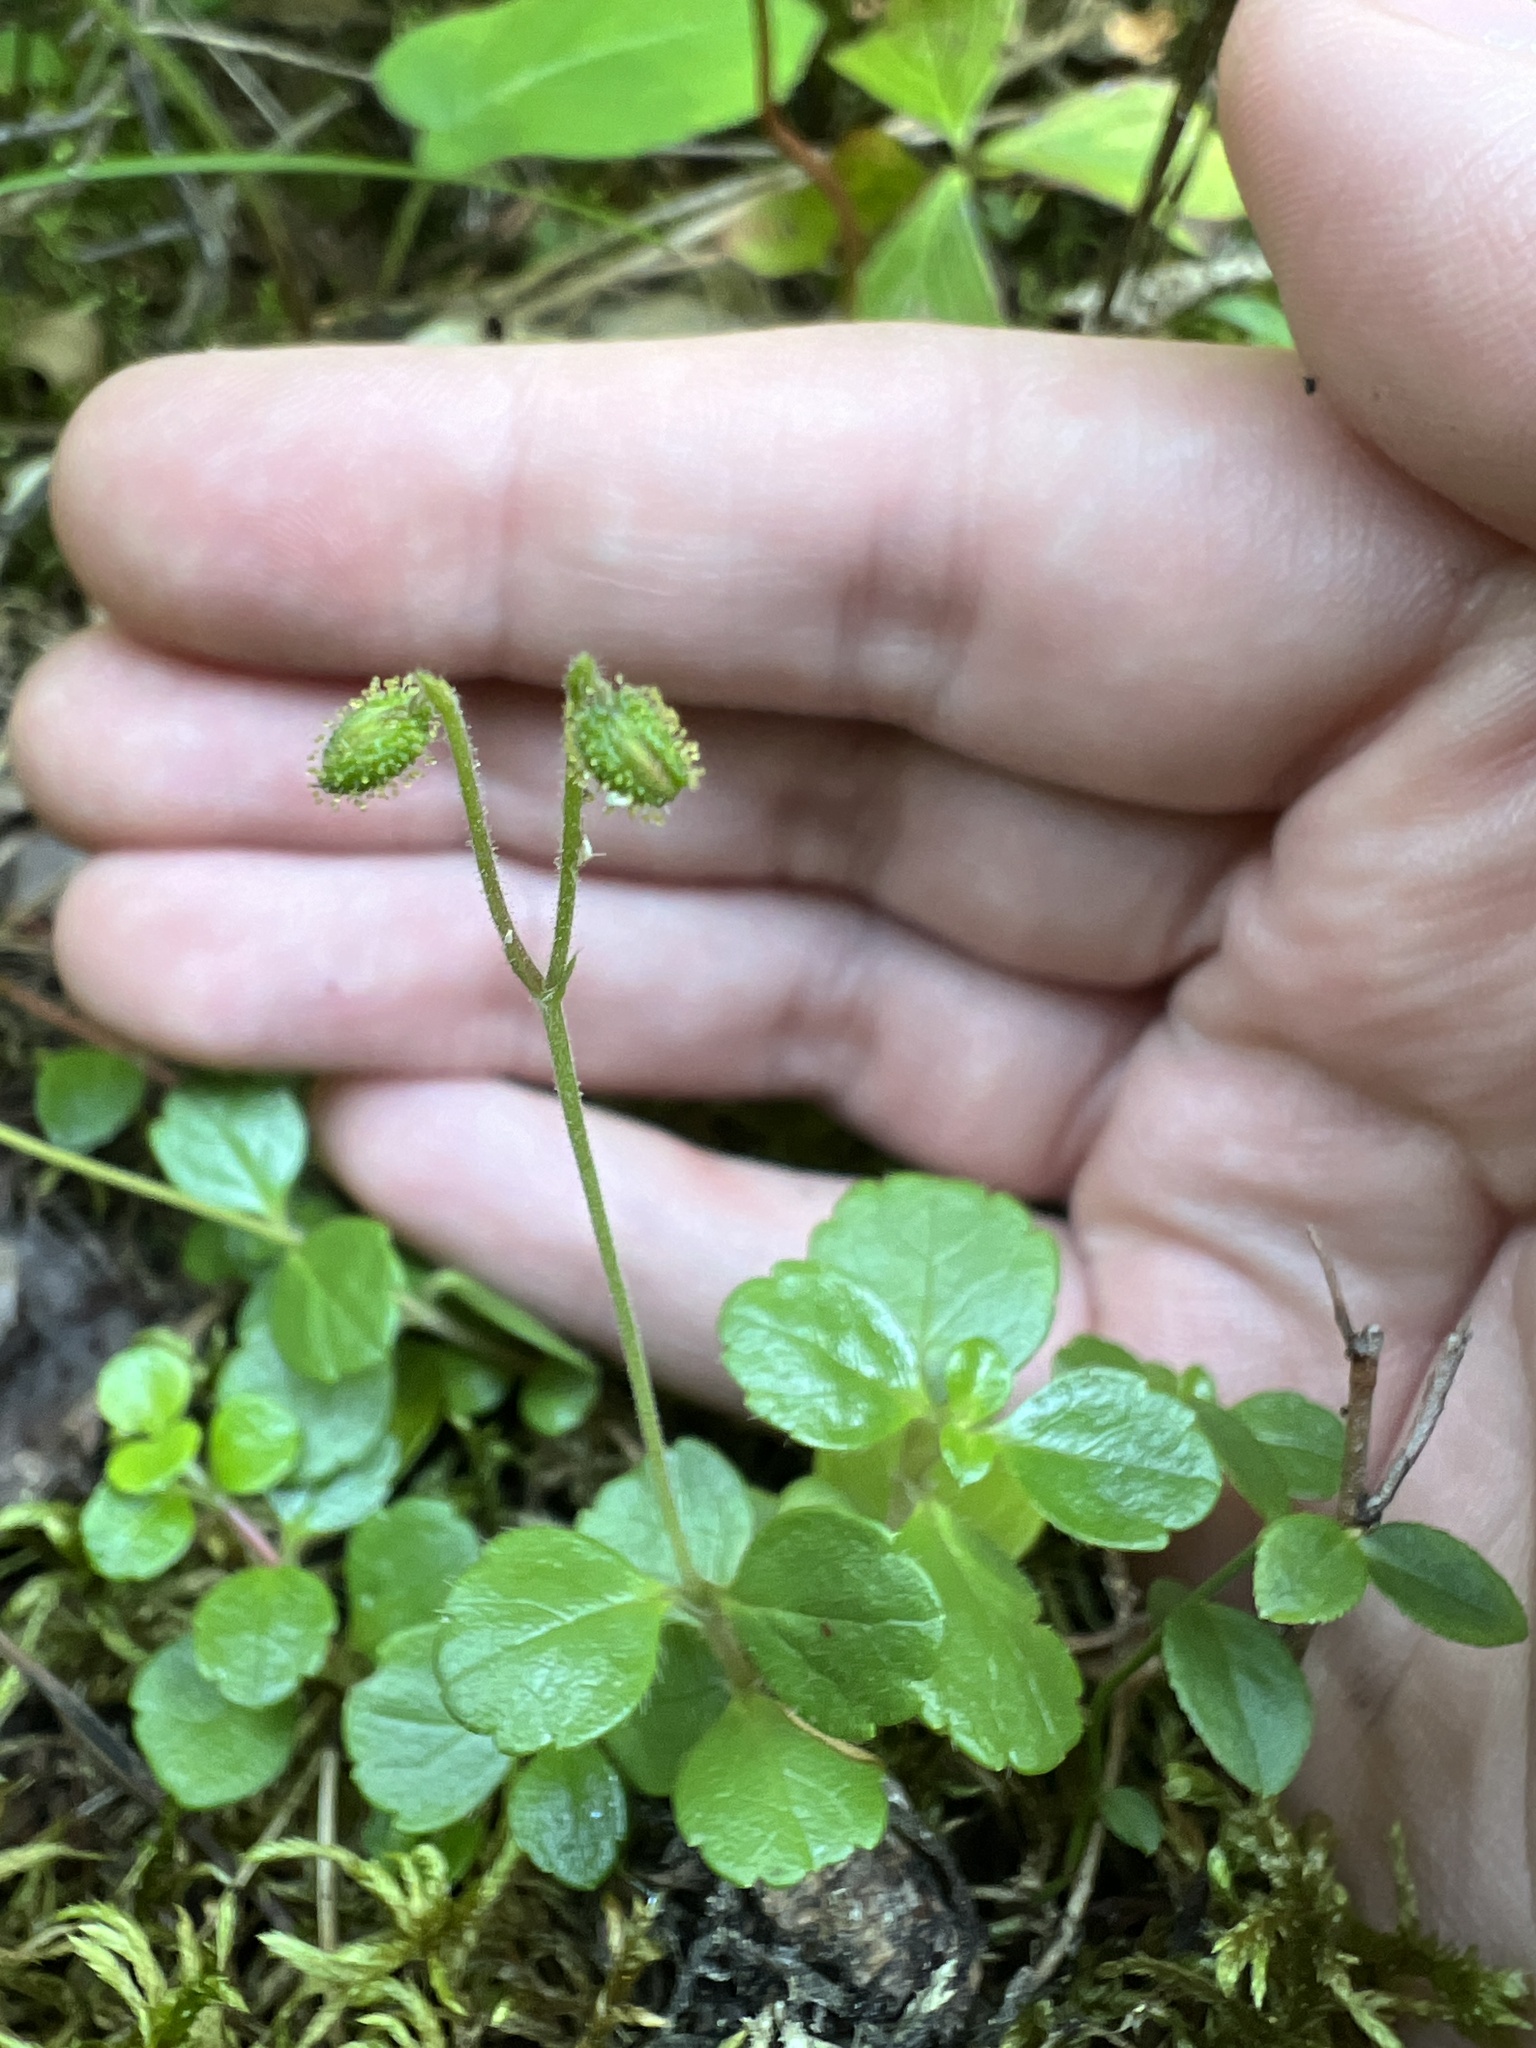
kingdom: Plantae
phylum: Tracheophyta
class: Magnoliopsida
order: Dipsacales
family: Caprifoliaceae
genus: Linnaea
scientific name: Linnaea borealis
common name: Twinflower
